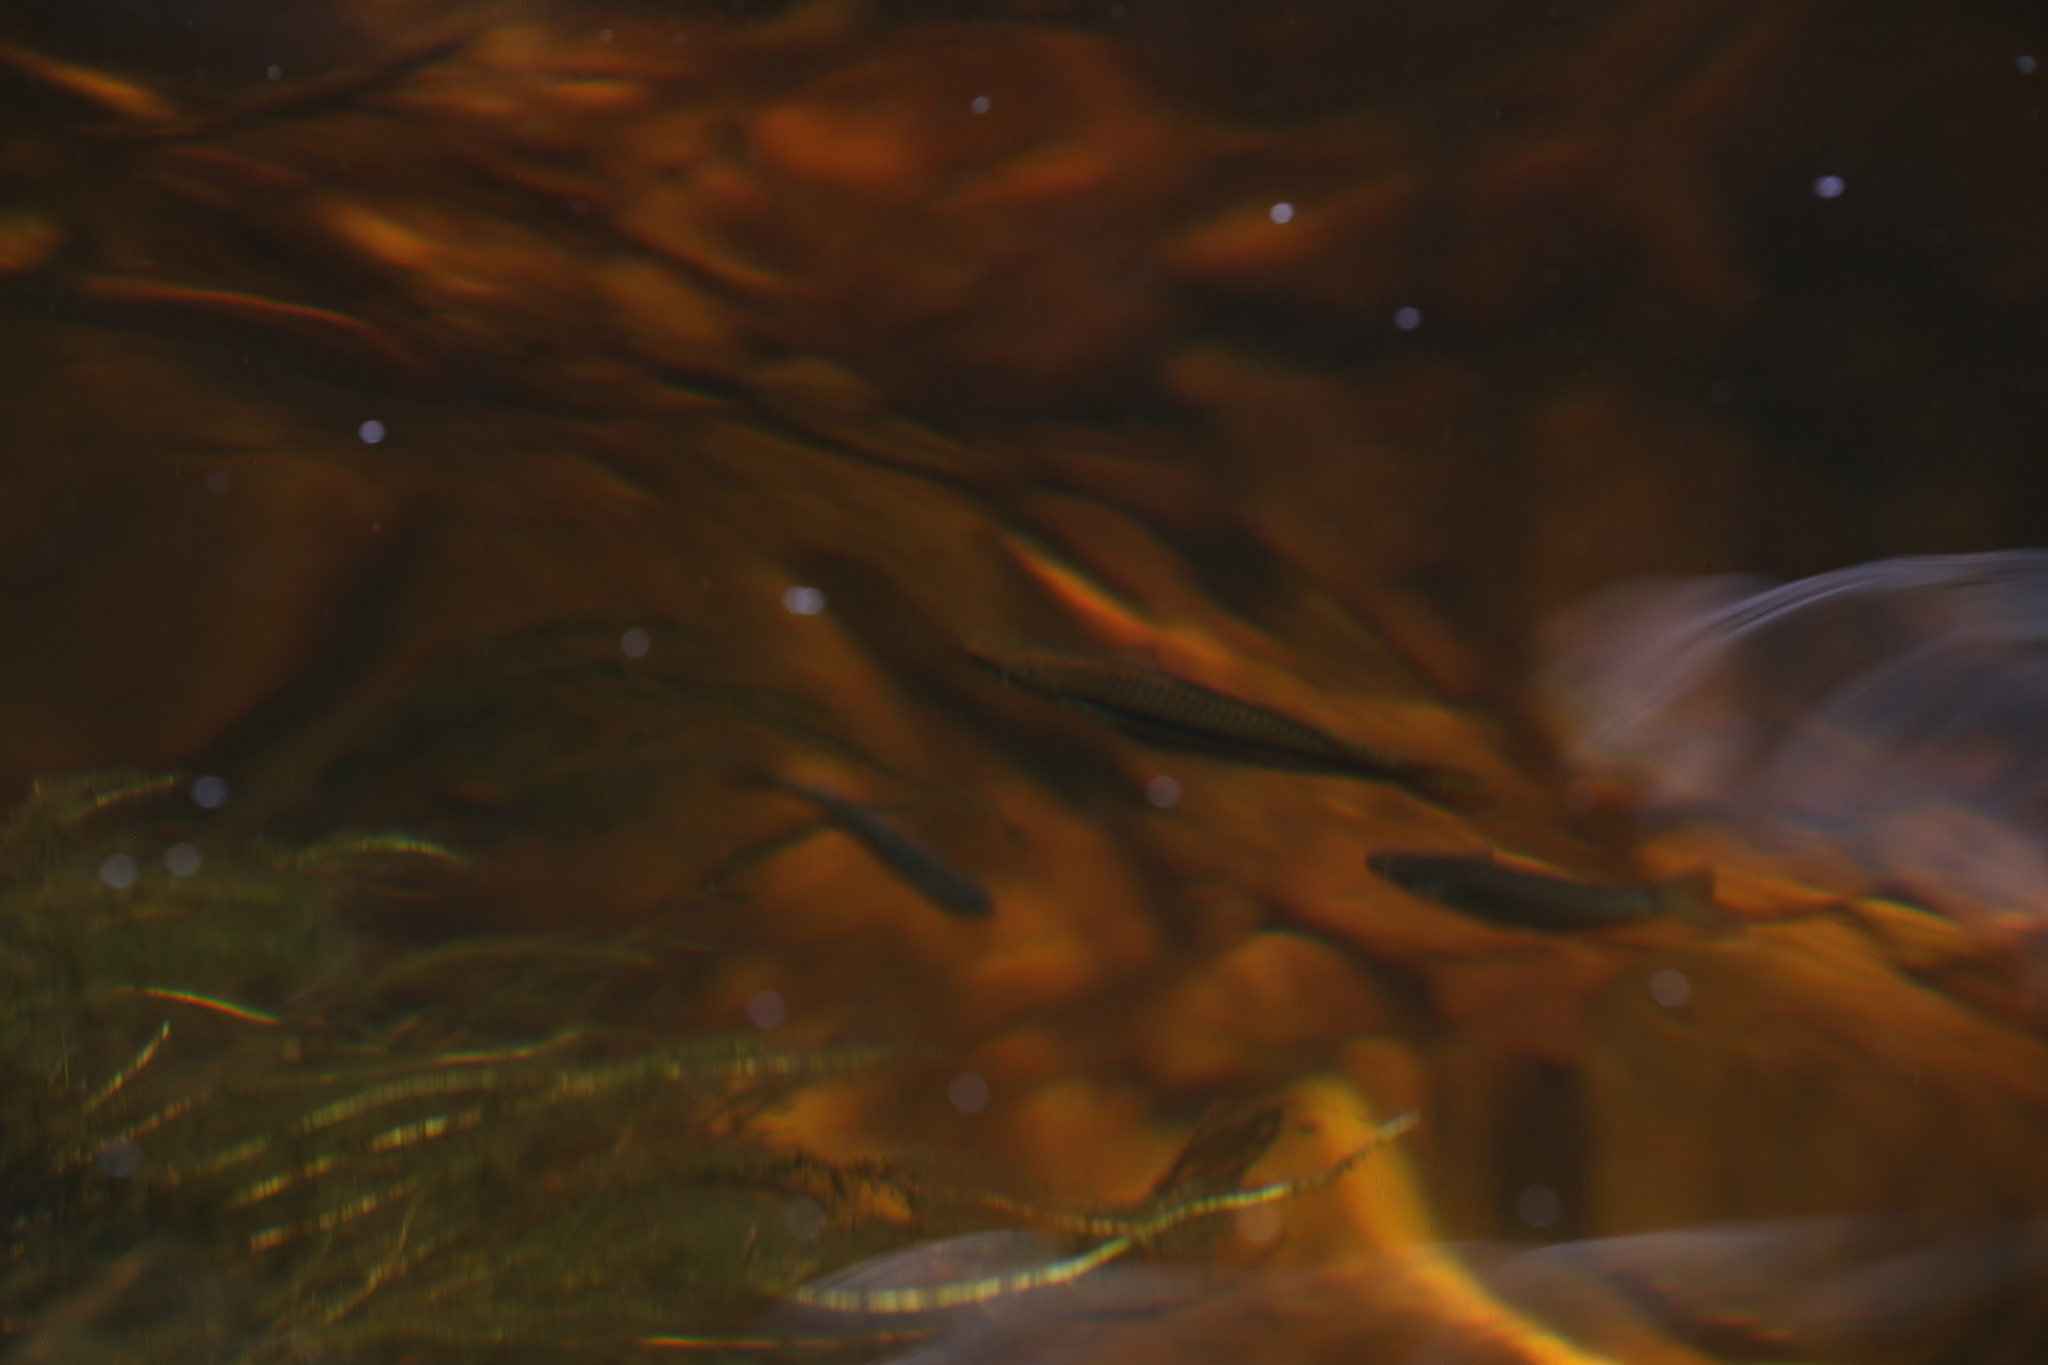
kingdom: Animalia
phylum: Chordata
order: Atheriniformes
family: Melanotaeniidae
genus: Melanotaenia
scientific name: Melanotaenia australis
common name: Western rainbowfish
